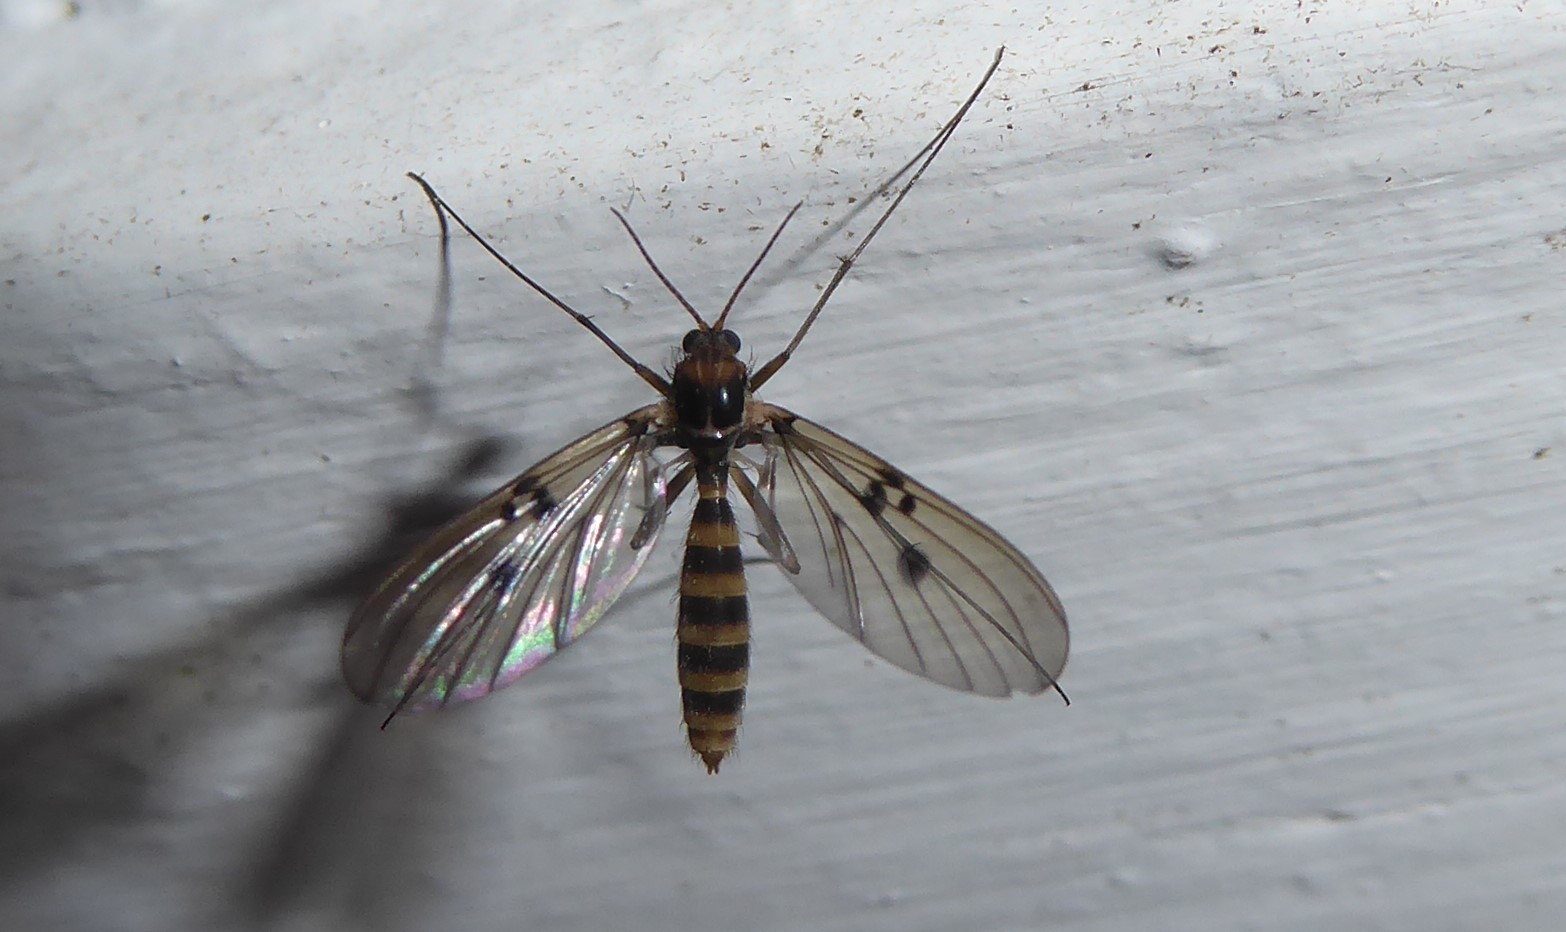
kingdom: Animalia
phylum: Arthropoda
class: Insecta
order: Diptera
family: Mycetophilidae
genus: Mycomya
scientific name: Mycomya quadrimaculata
